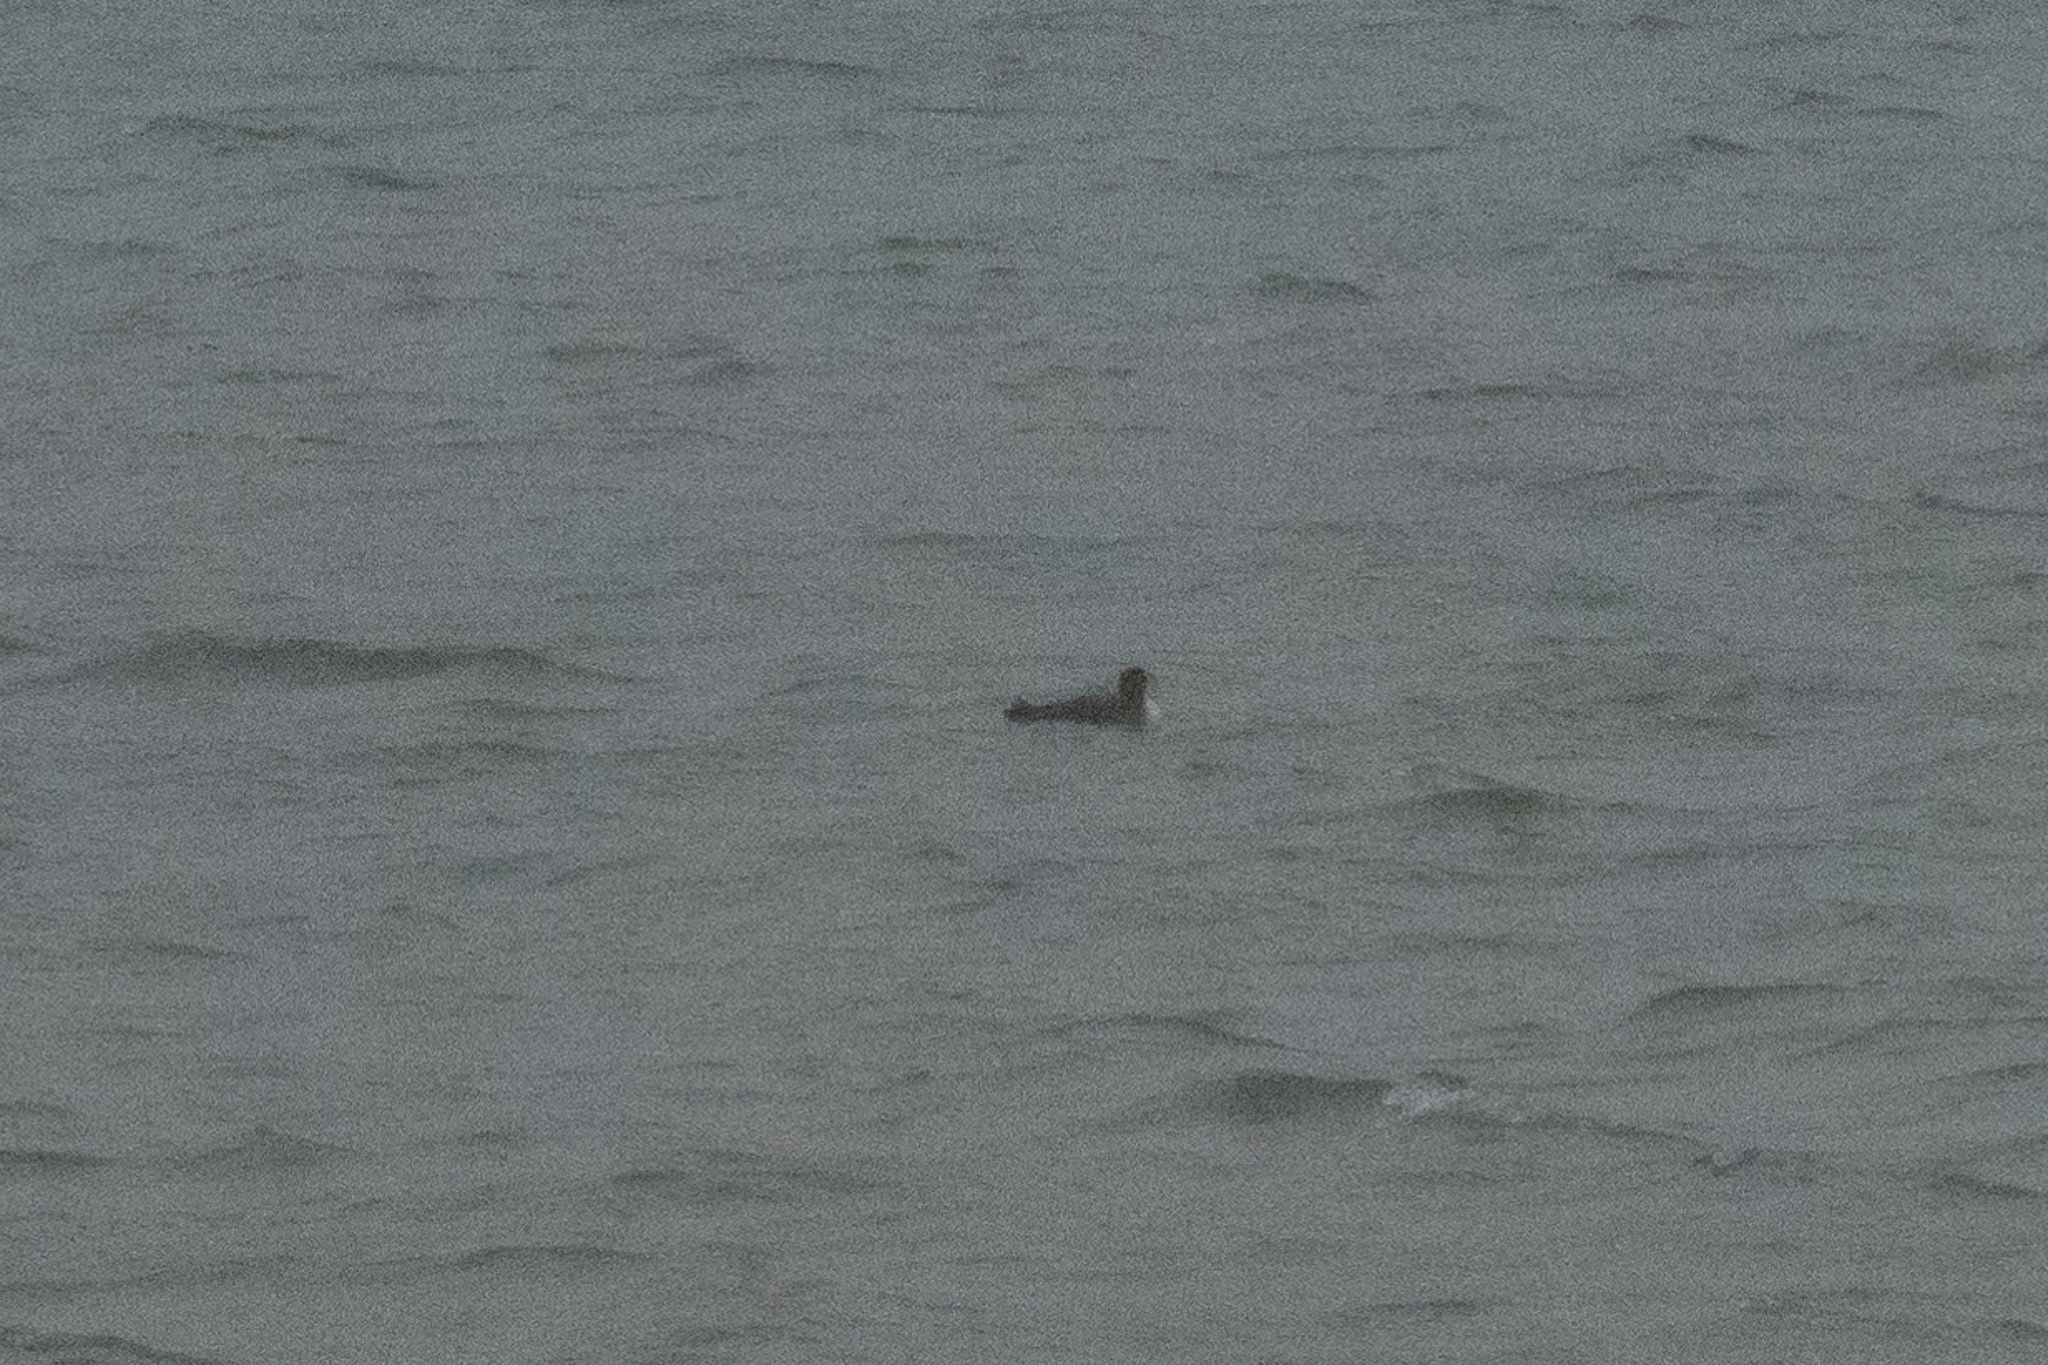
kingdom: Animalia
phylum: Chordata
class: Aves
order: Gaviiformes
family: Gaviidae
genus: Gavia
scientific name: Gavia
